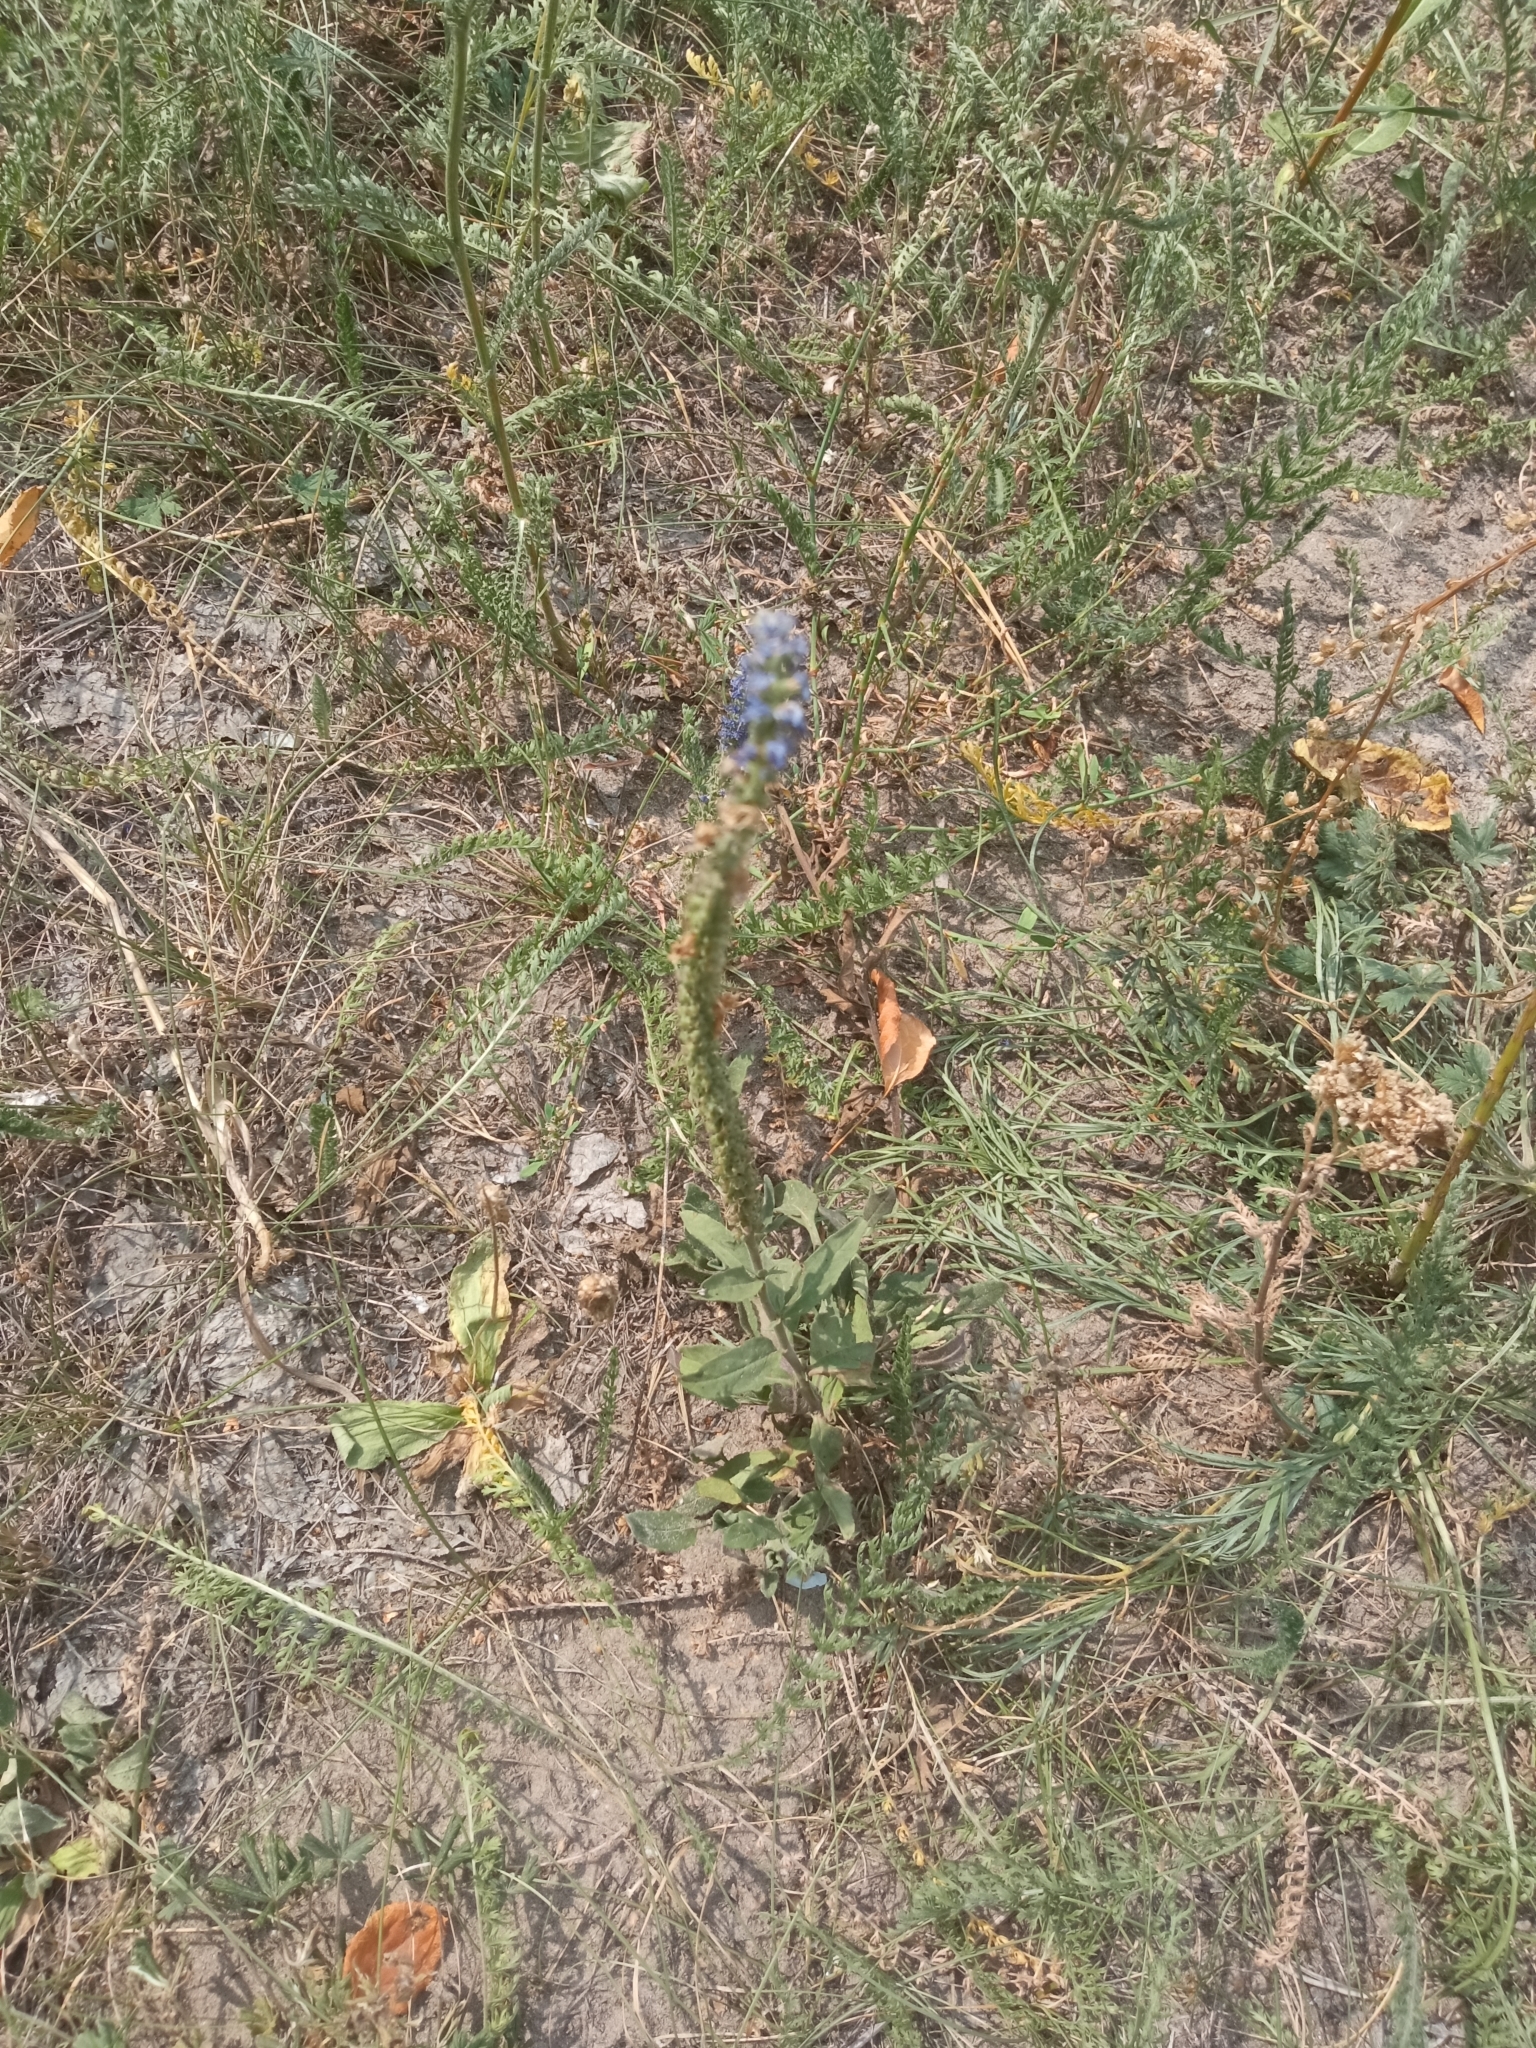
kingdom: Plantae
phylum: Tracheophyta
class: Magnoliopsida
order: Lamiales
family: Plantaginaceae
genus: Veronica
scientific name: Veronica spicata
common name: Spiked speedwell
